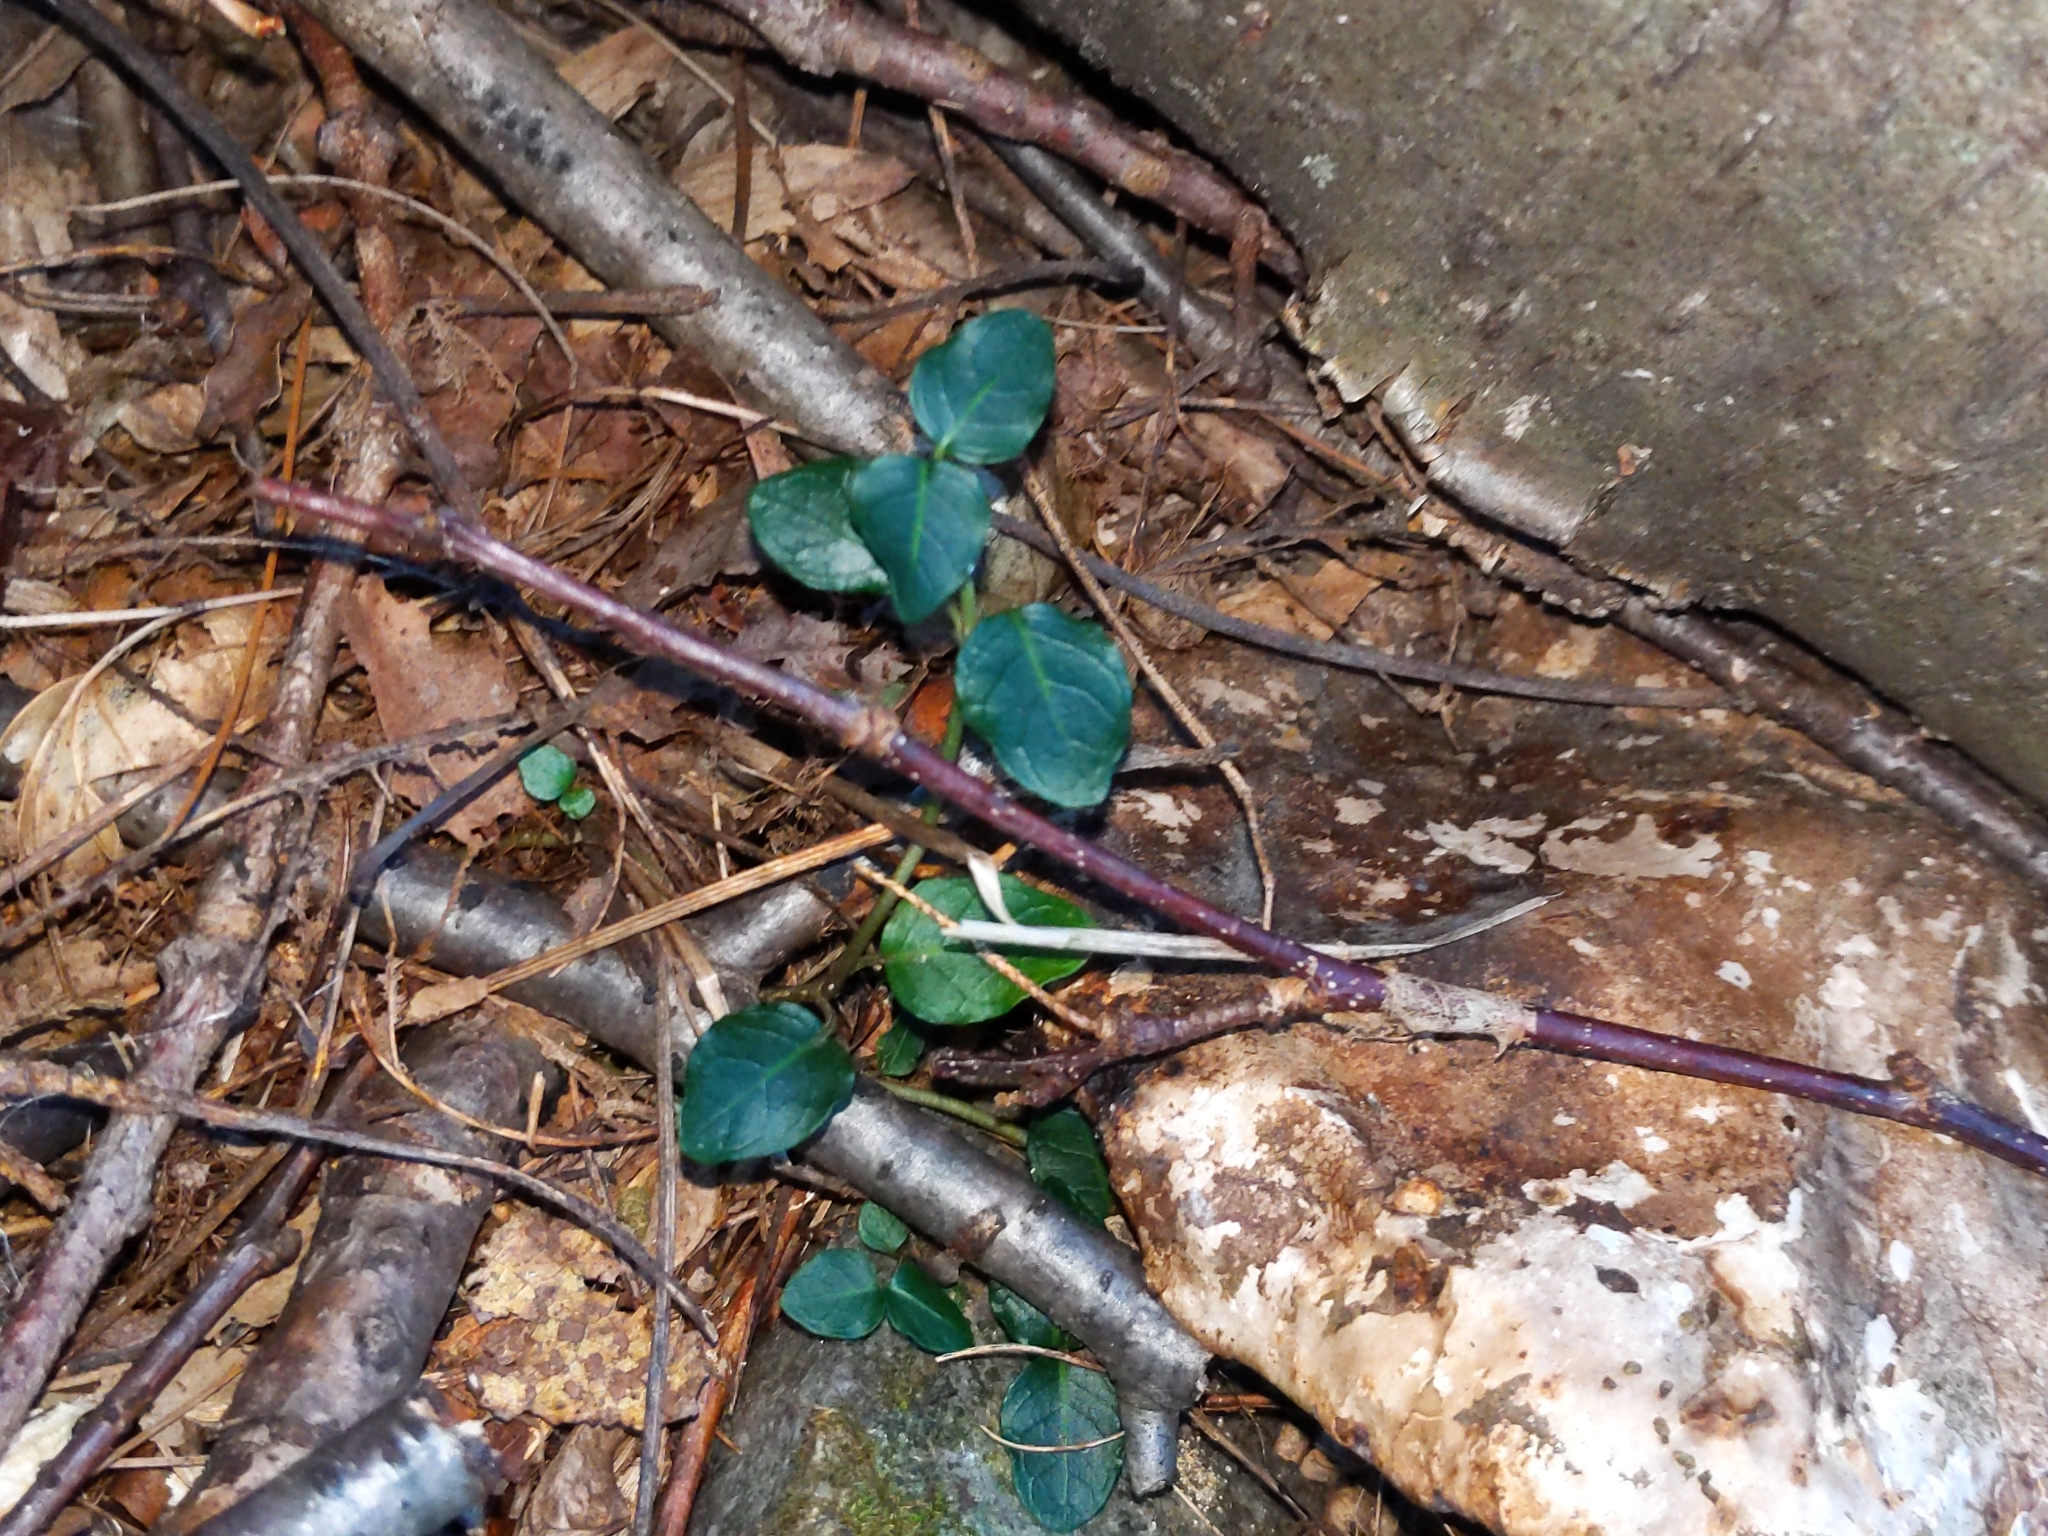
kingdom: Plantae
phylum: Tracheophyta
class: Magnoliopsida
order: Gentianales
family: Rubiaceae
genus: Mitchella
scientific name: Mitchella repens
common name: Partridge-berry
